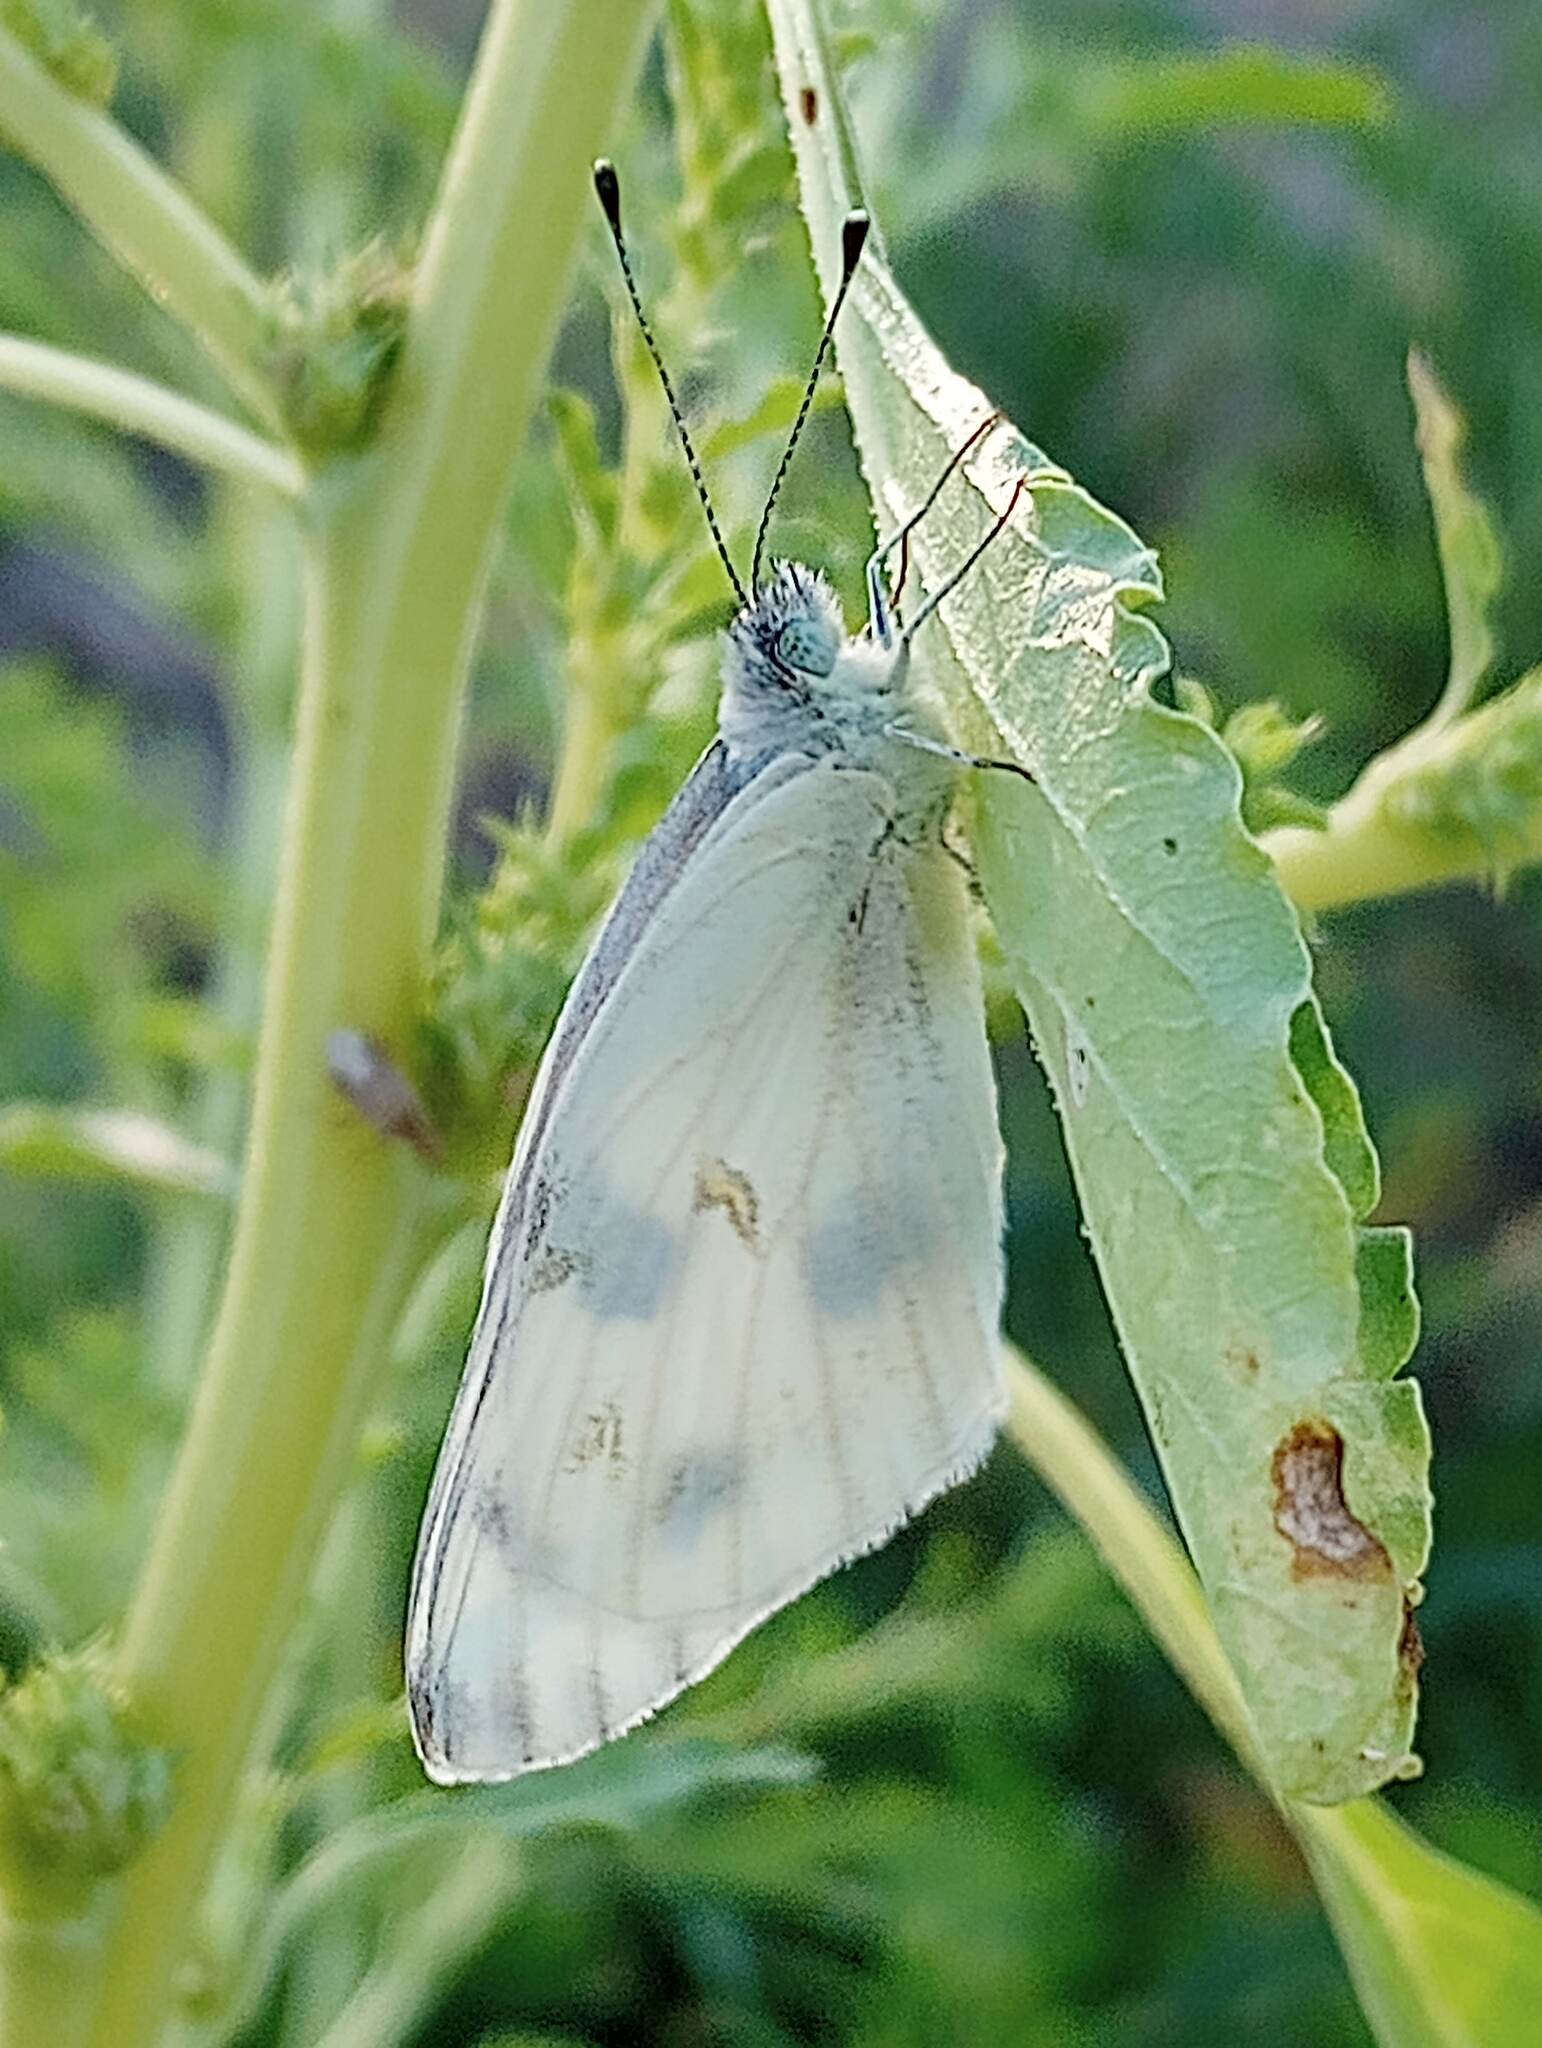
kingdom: Animalia
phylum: Arthropoda
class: Insecta
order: Lepidoptera
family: Pieridae
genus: Pontia
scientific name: Pontia protodice
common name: Checkered white
